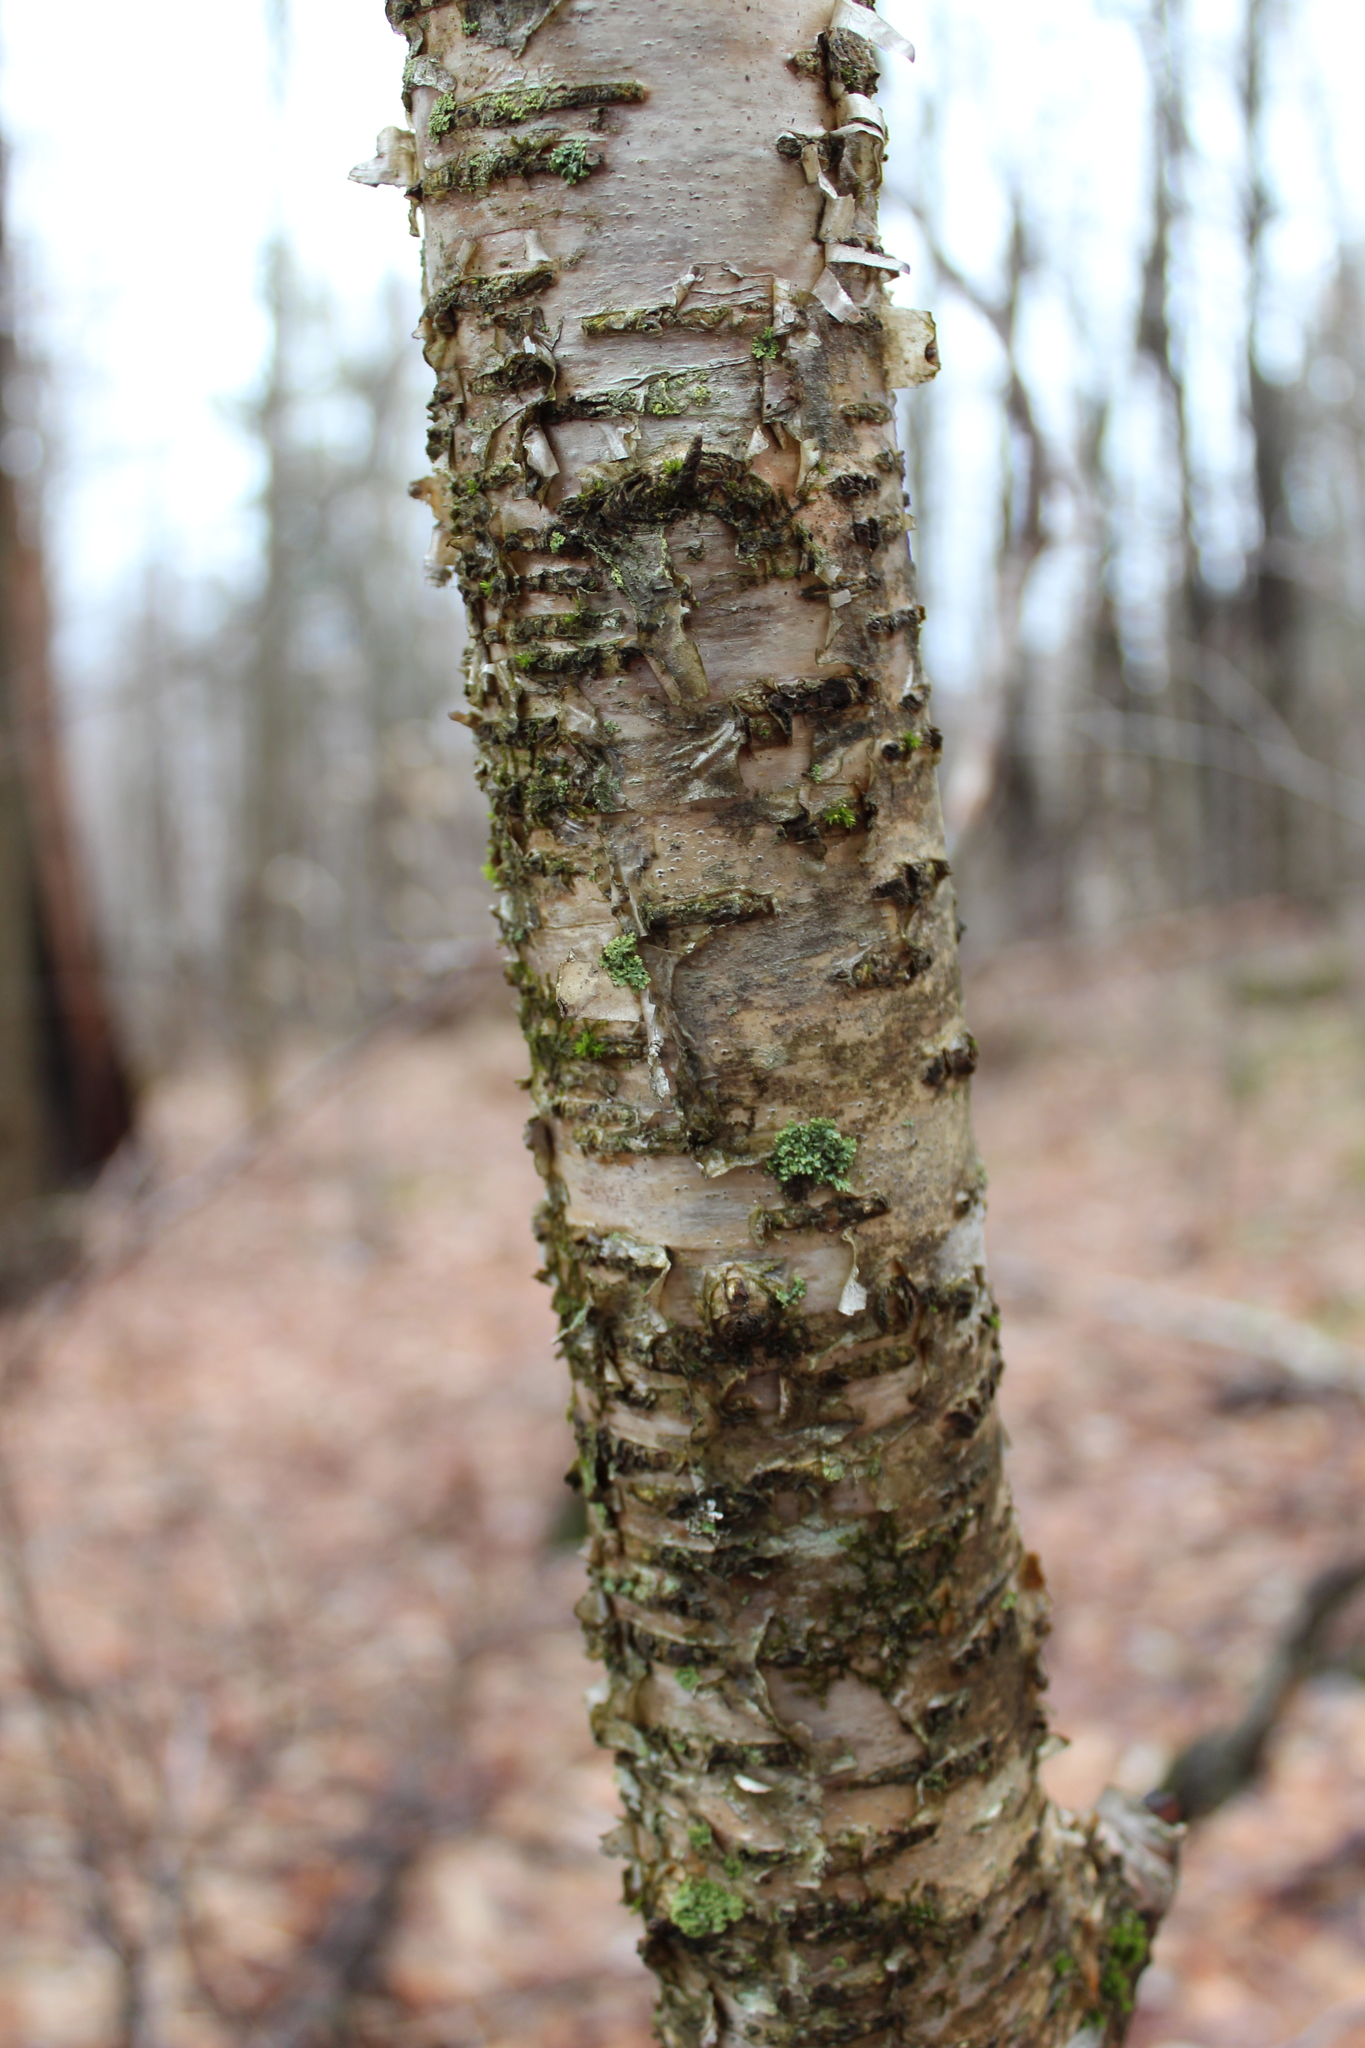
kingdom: Plantae
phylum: Tracheophyta
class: Magnoliopsida
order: Fagales
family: Betulaceae
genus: Betula
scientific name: Betula alleghaniensis
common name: Yellow birch
